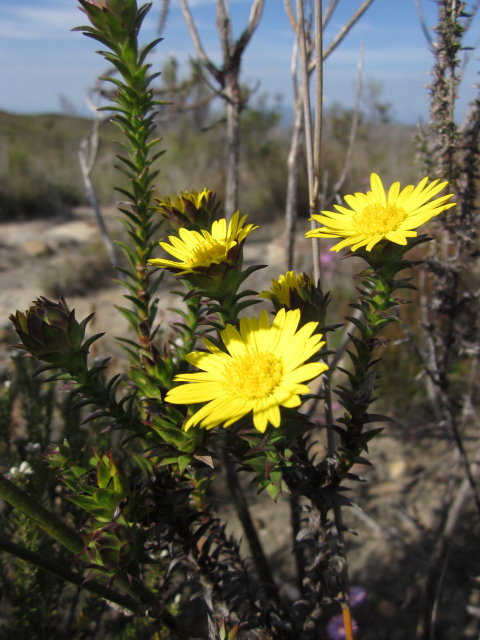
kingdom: Plantae
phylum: Tracheophyta
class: Magnoliopsida
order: Asterales
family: Asteraceae
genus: Oedera
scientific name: Oedera capensis
